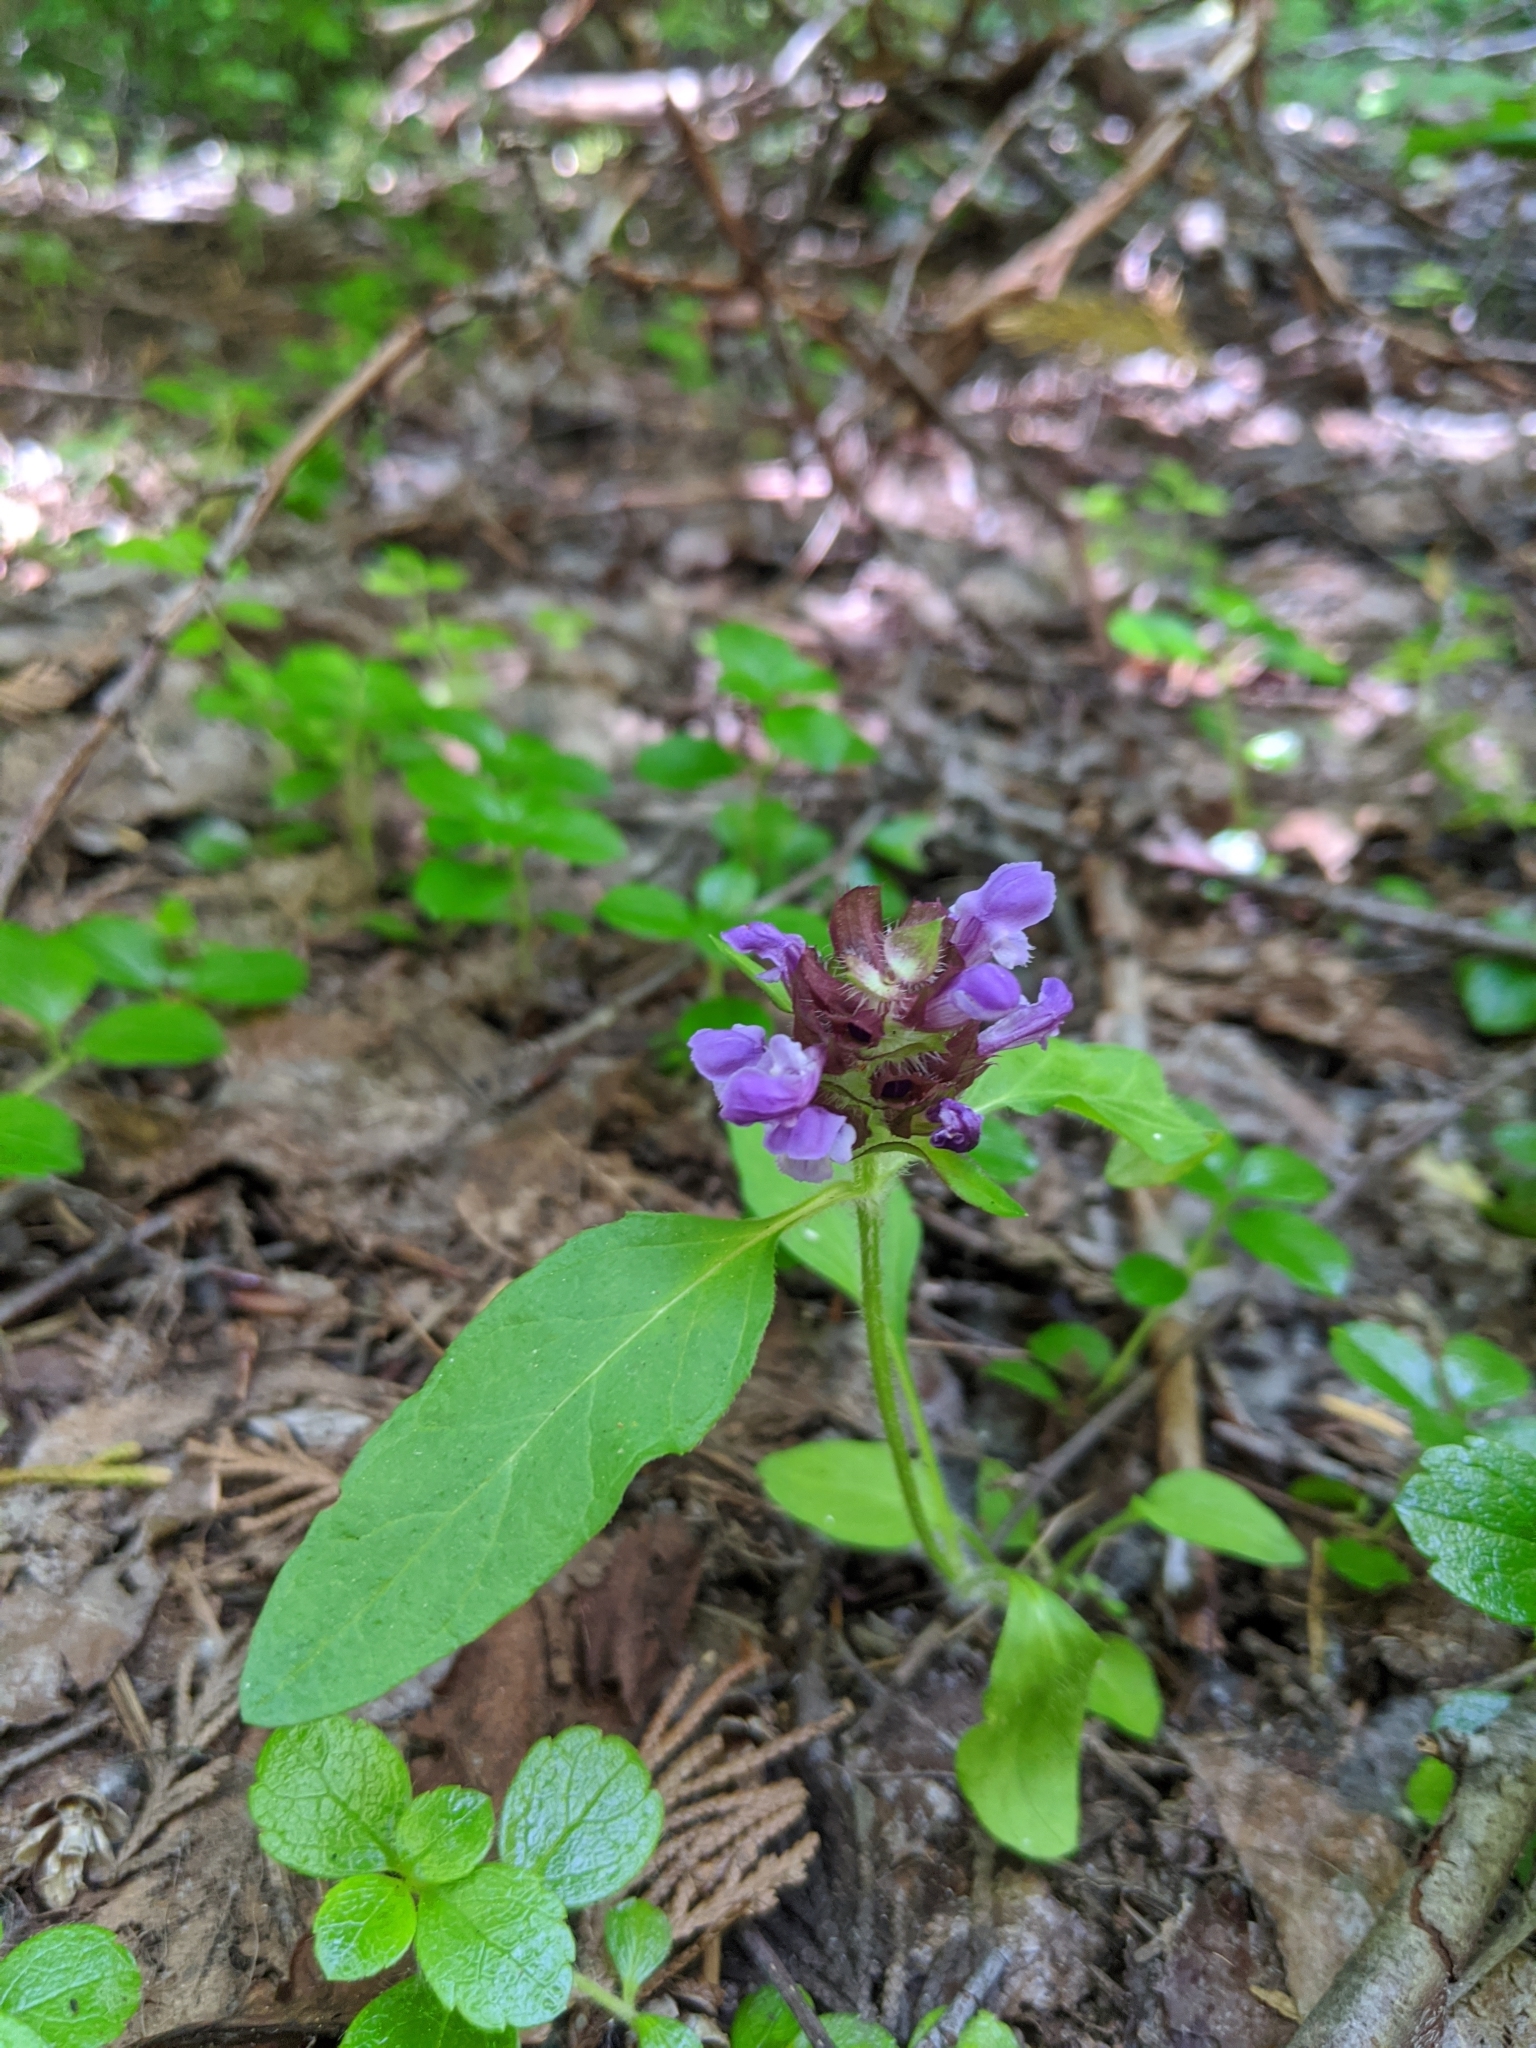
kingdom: Plantae
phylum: Tracheophyta
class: Magnoliopsida
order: Lamiales
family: Lamiaceae
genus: Prunella
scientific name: Prunella vulgaris
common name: Heal-all
